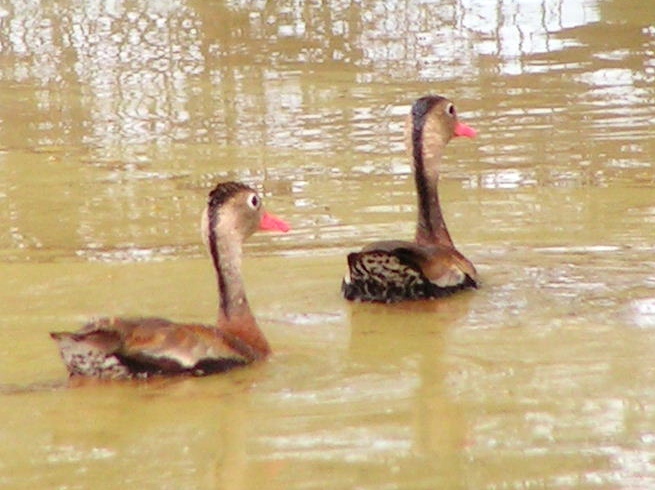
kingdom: Animalia
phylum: Chordata
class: Aves
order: Anseriformes
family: Anatidae
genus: Dendrocygna
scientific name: Dendrocygna autumnalis
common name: Black-bellied whistling duck
